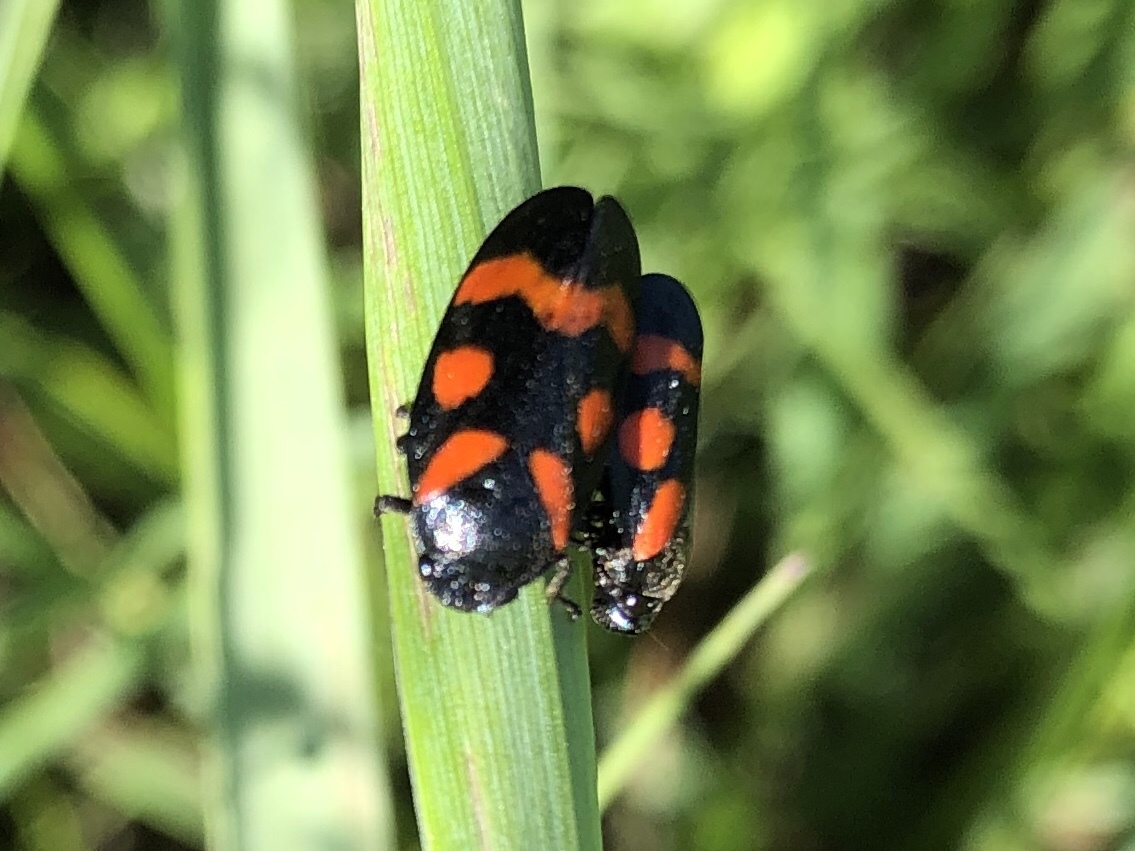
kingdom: Animalia
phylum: Arthropoda
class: Insecta
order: Hemiptera
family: Cercopidae
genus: Cercopis
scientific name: Cercopis sanguinolenta
